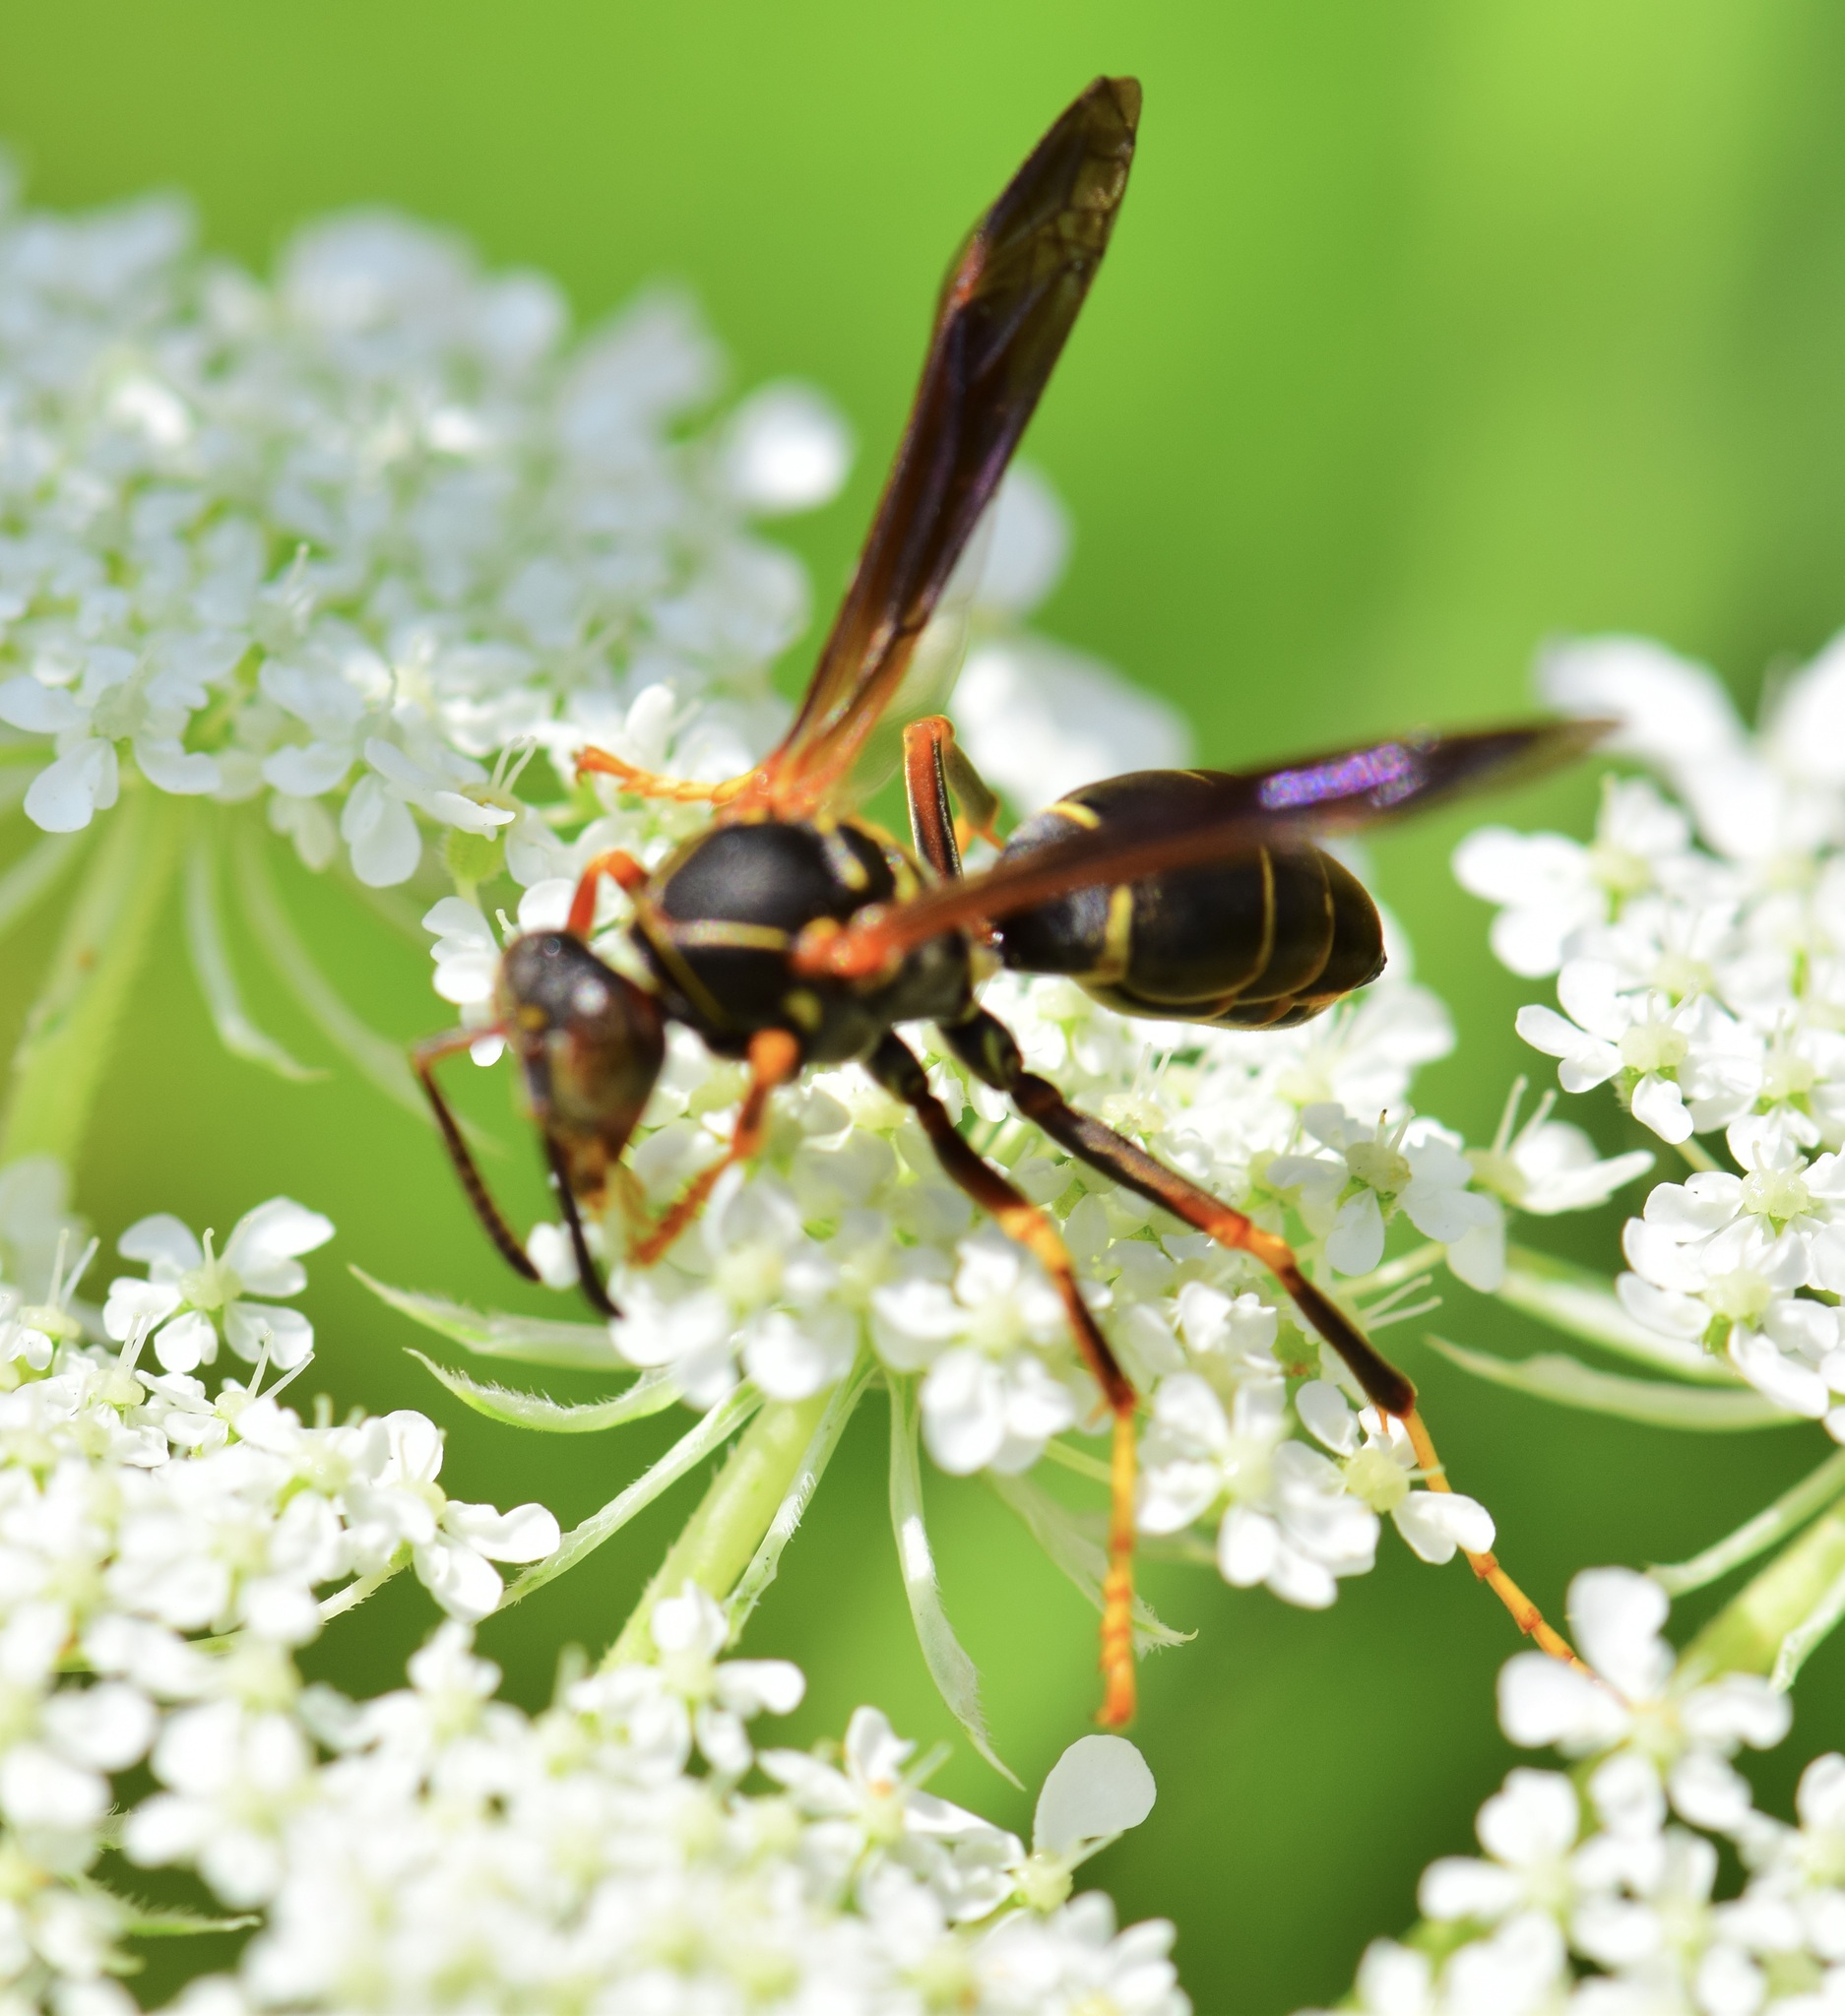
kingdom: Animalia
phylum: Arthropoda
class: Insecta
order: Hymenoptera
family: Eumenidae
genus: Polistes
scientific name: Polistes fuscatus
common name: Dark paper wasp
